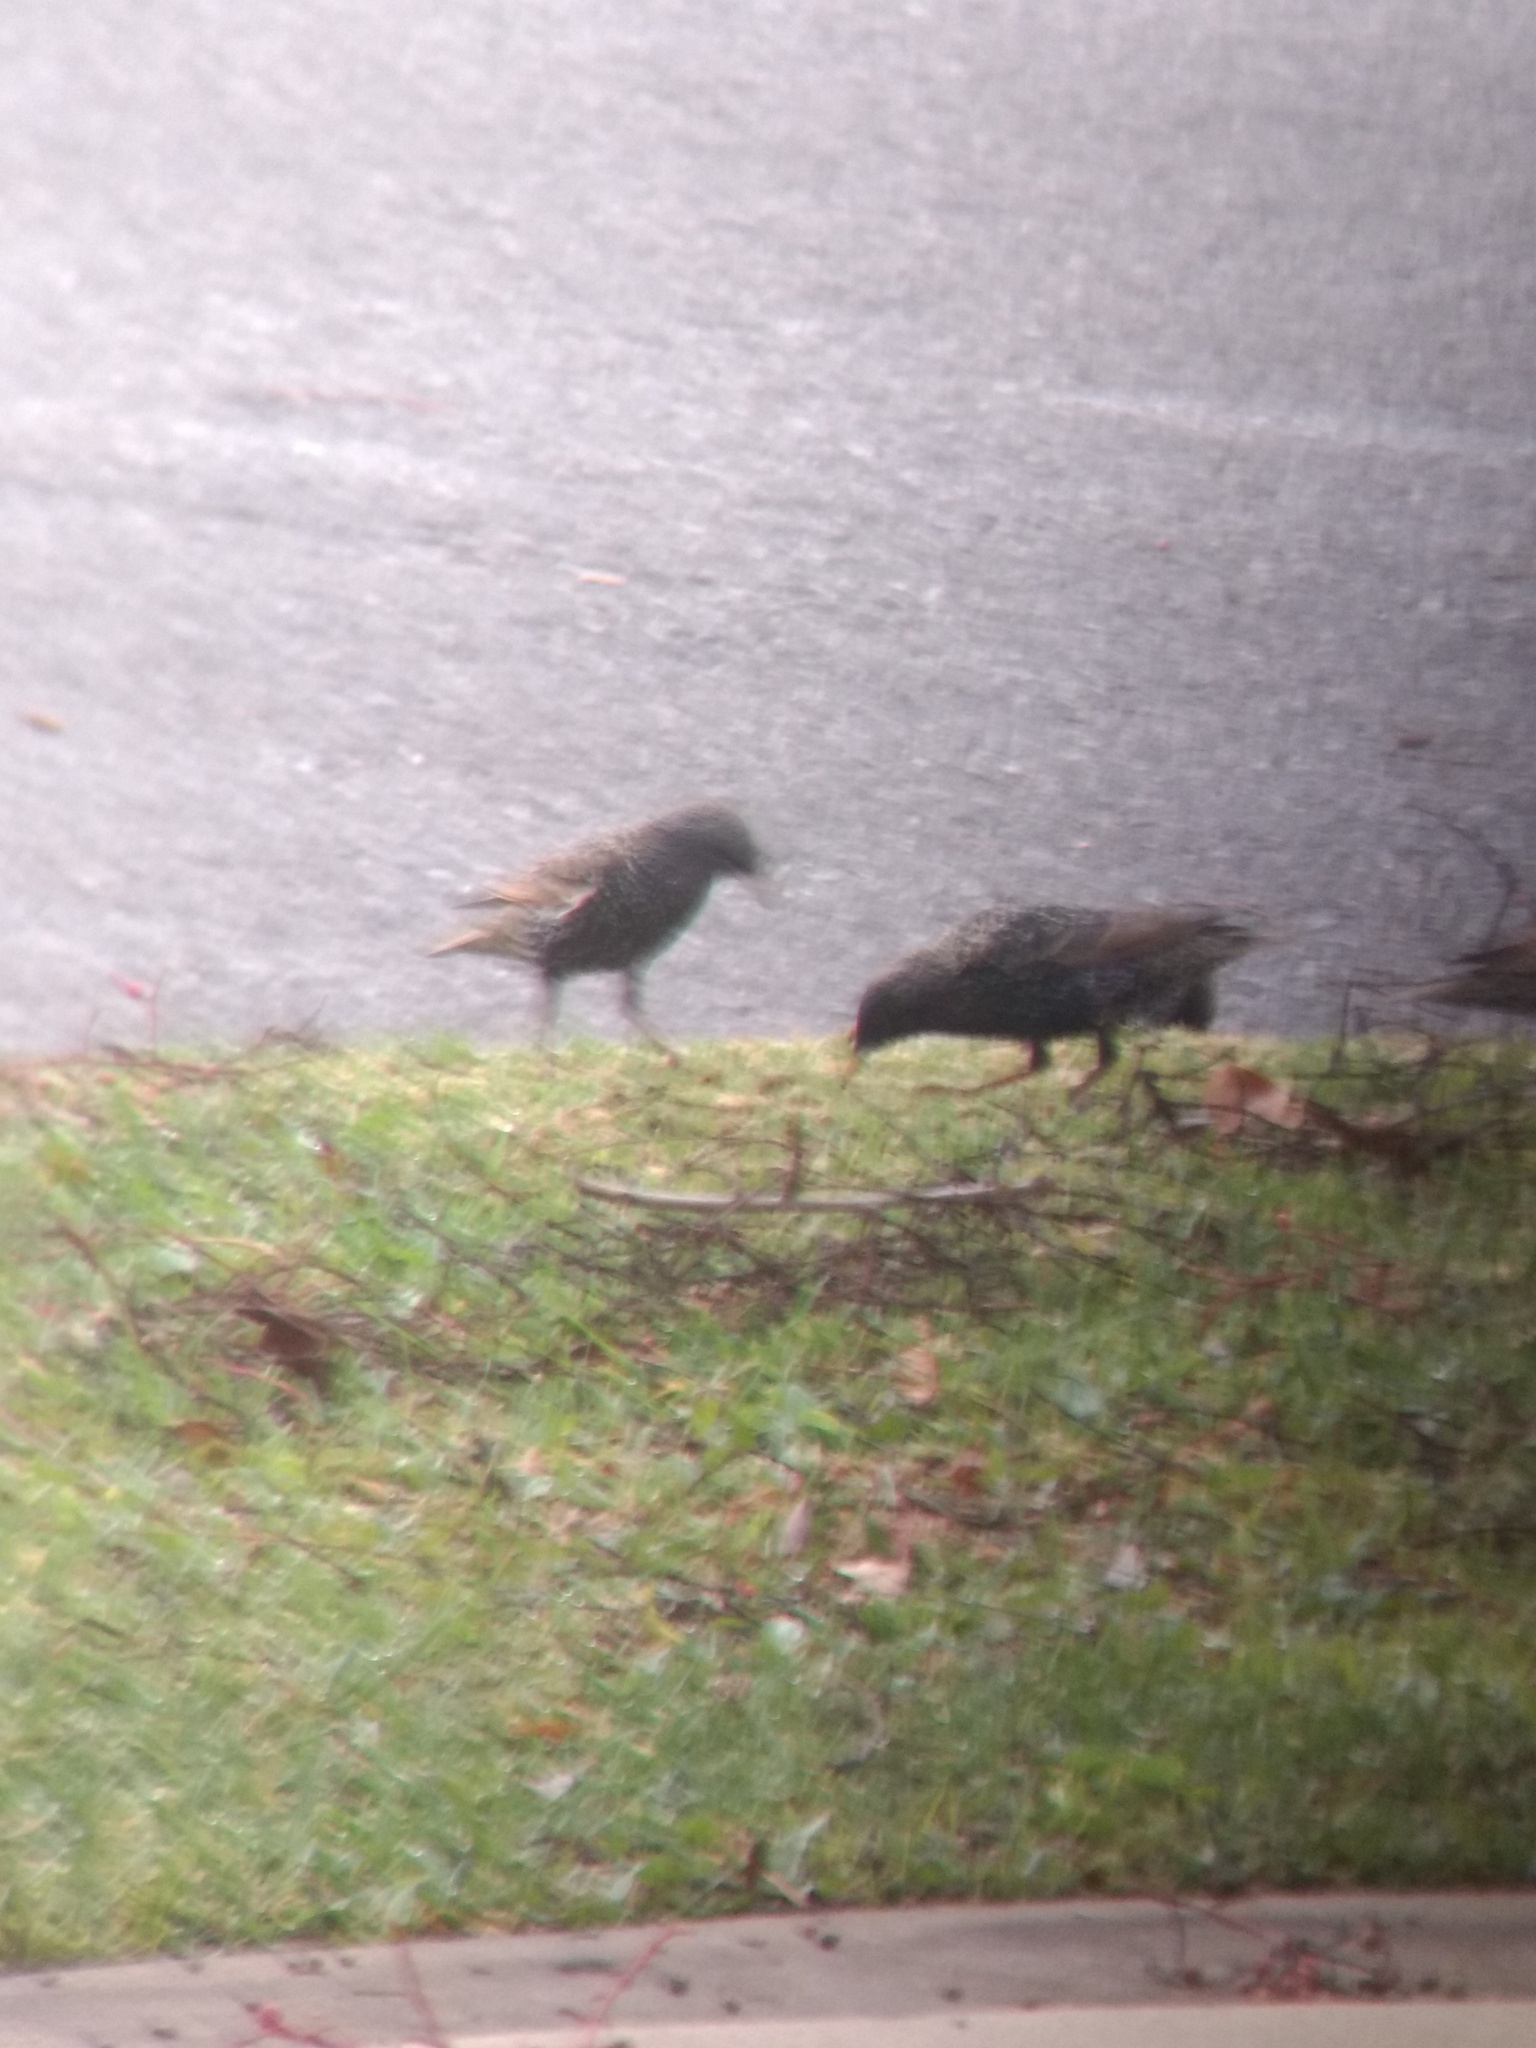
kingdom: Animalia
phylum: Chordata
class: Aves
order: Passeriformes
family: Sturnidae
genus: Sturnus
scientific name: Sturnus vulgaris
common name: Common starling
